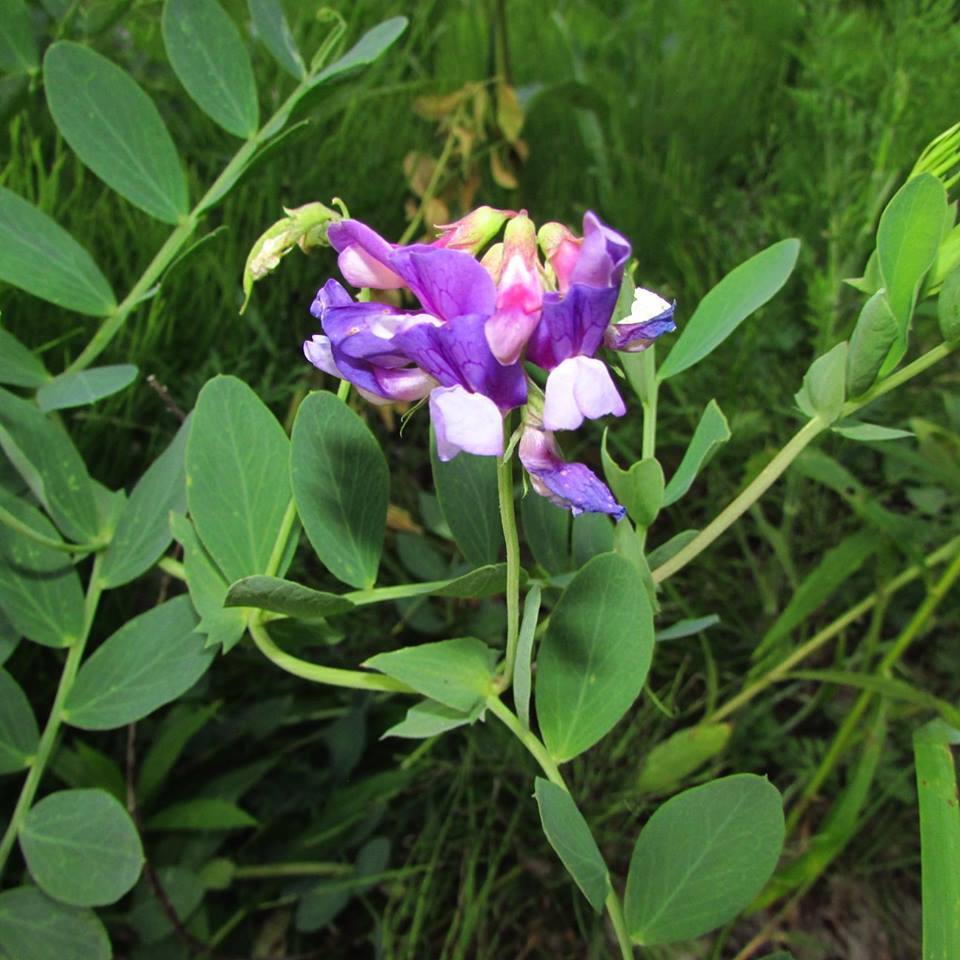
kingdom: Plantae
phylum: Tracheophyta
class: Magnoliopsida
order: Fabales
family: Fabaceae
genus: Lathyrus
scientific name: Lathyrus japonicus
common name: Sea pea
